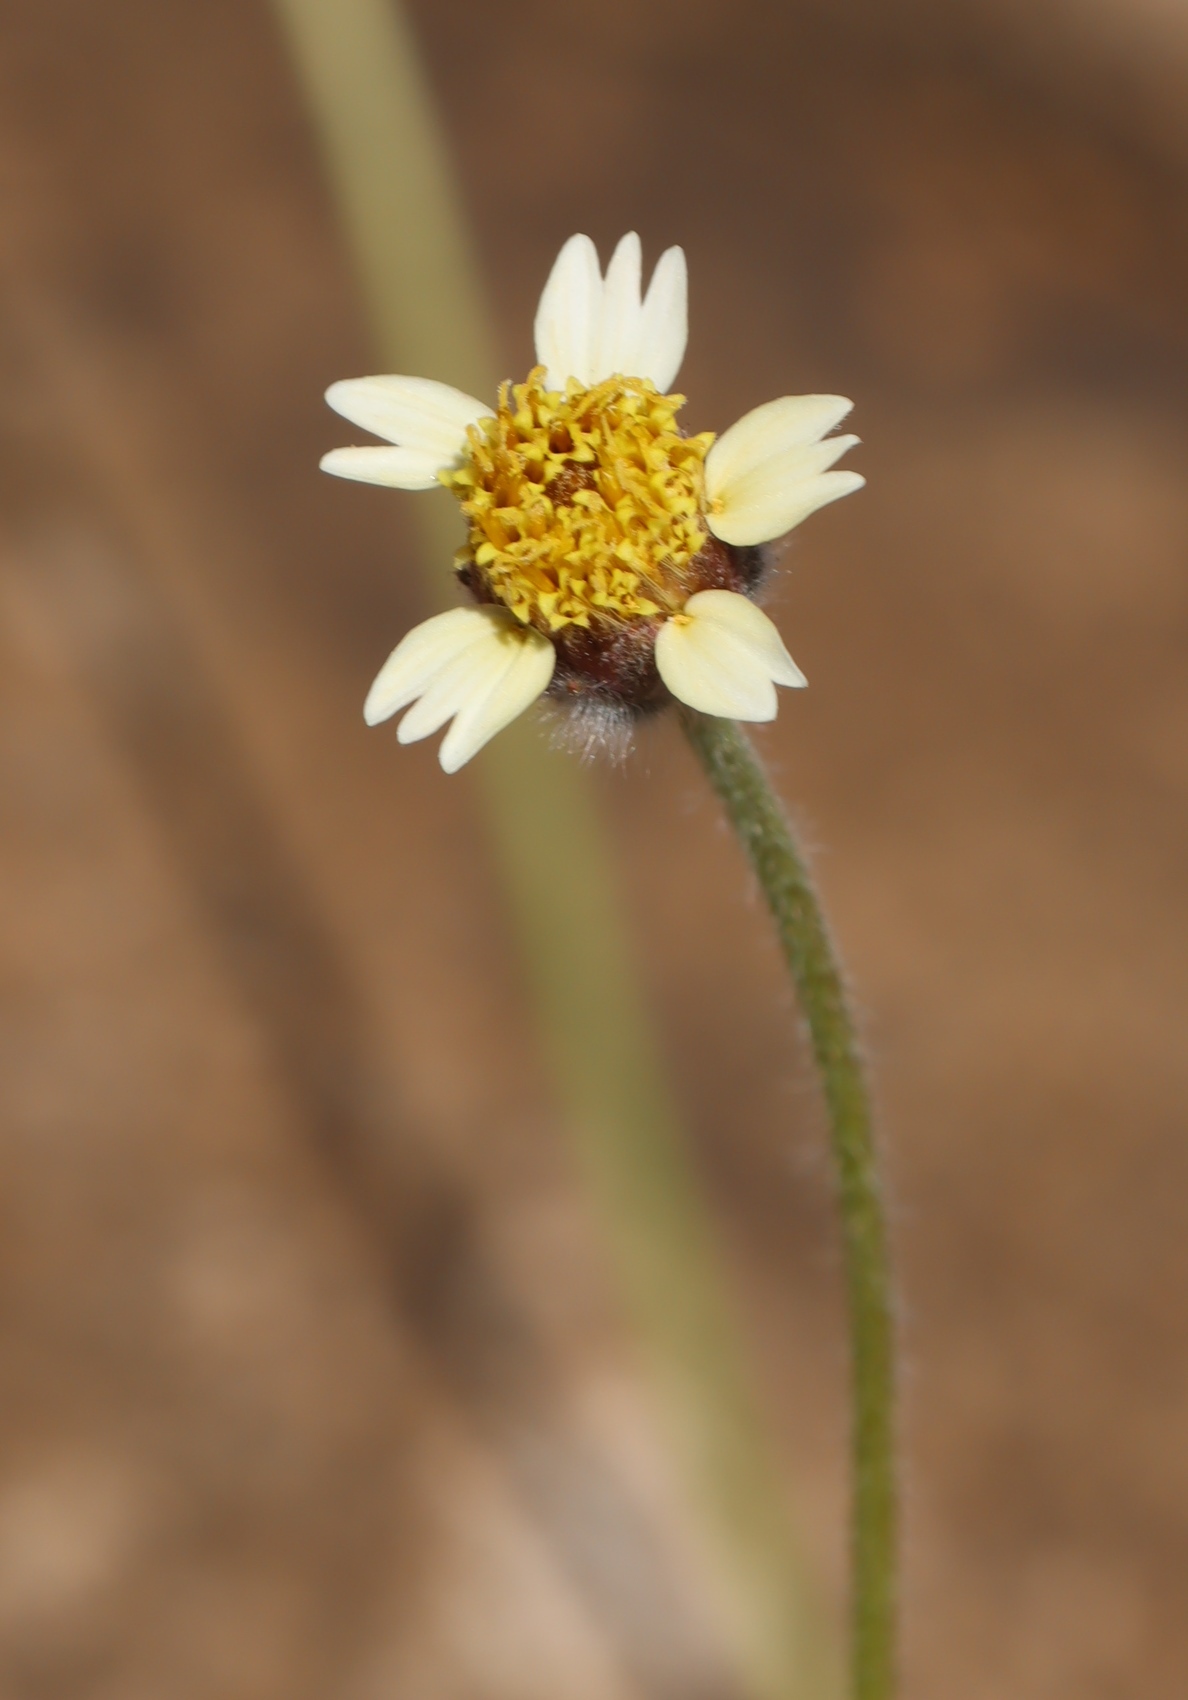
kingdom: Plantae
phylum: Tracheophyta
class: Magnoliopsida
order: Asterales
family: Asteraceae
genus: Bidens
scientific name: Bidens pilosa
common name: Black-jack
